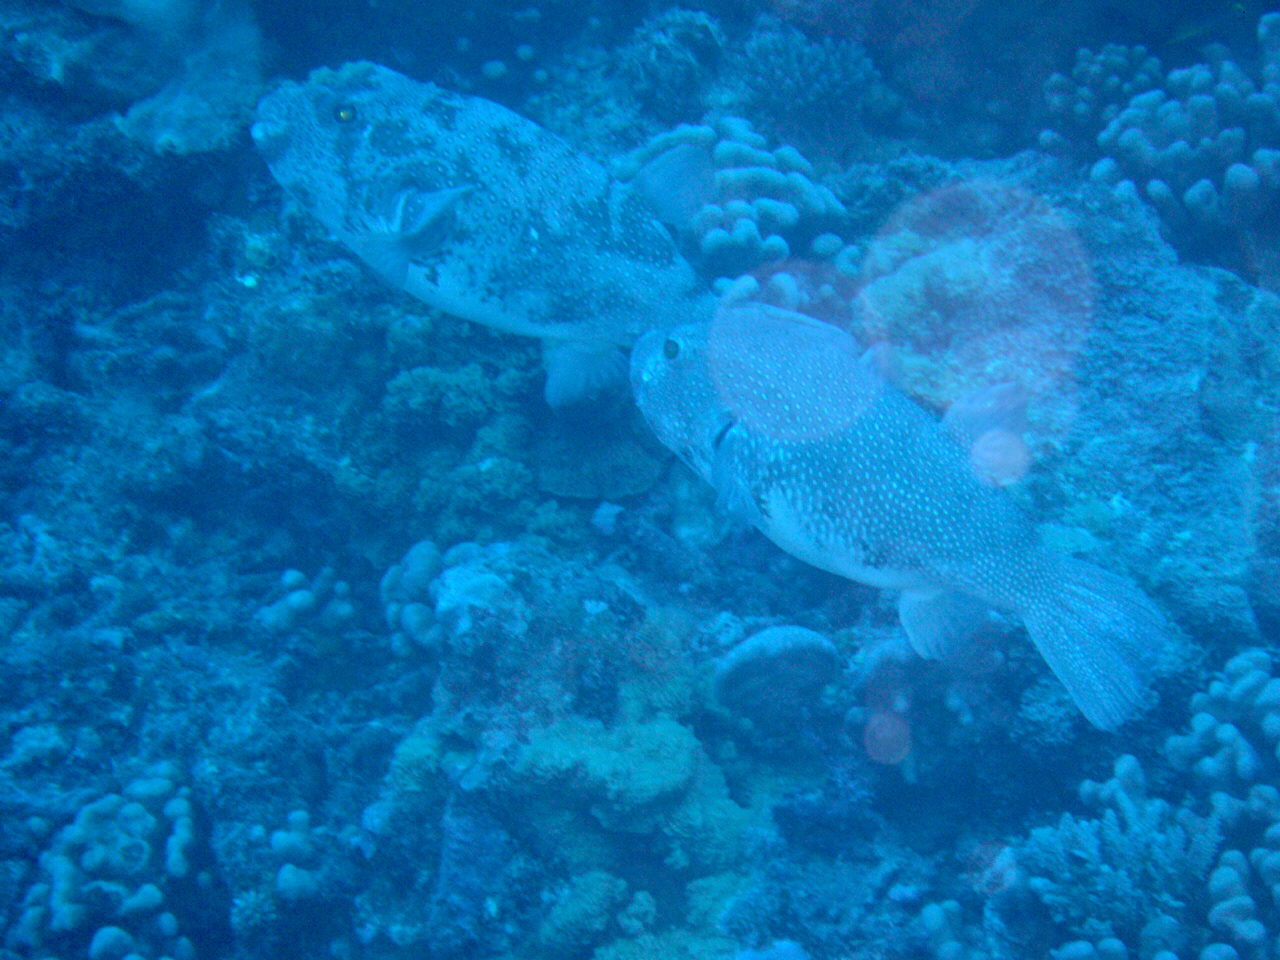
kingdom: Animalia
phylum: Chordata
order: Tetraodontiformes
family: Tetraodontidae
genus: Arothron
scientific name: Arothron caeruleopunctatus
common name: Blue-spotted puffer
